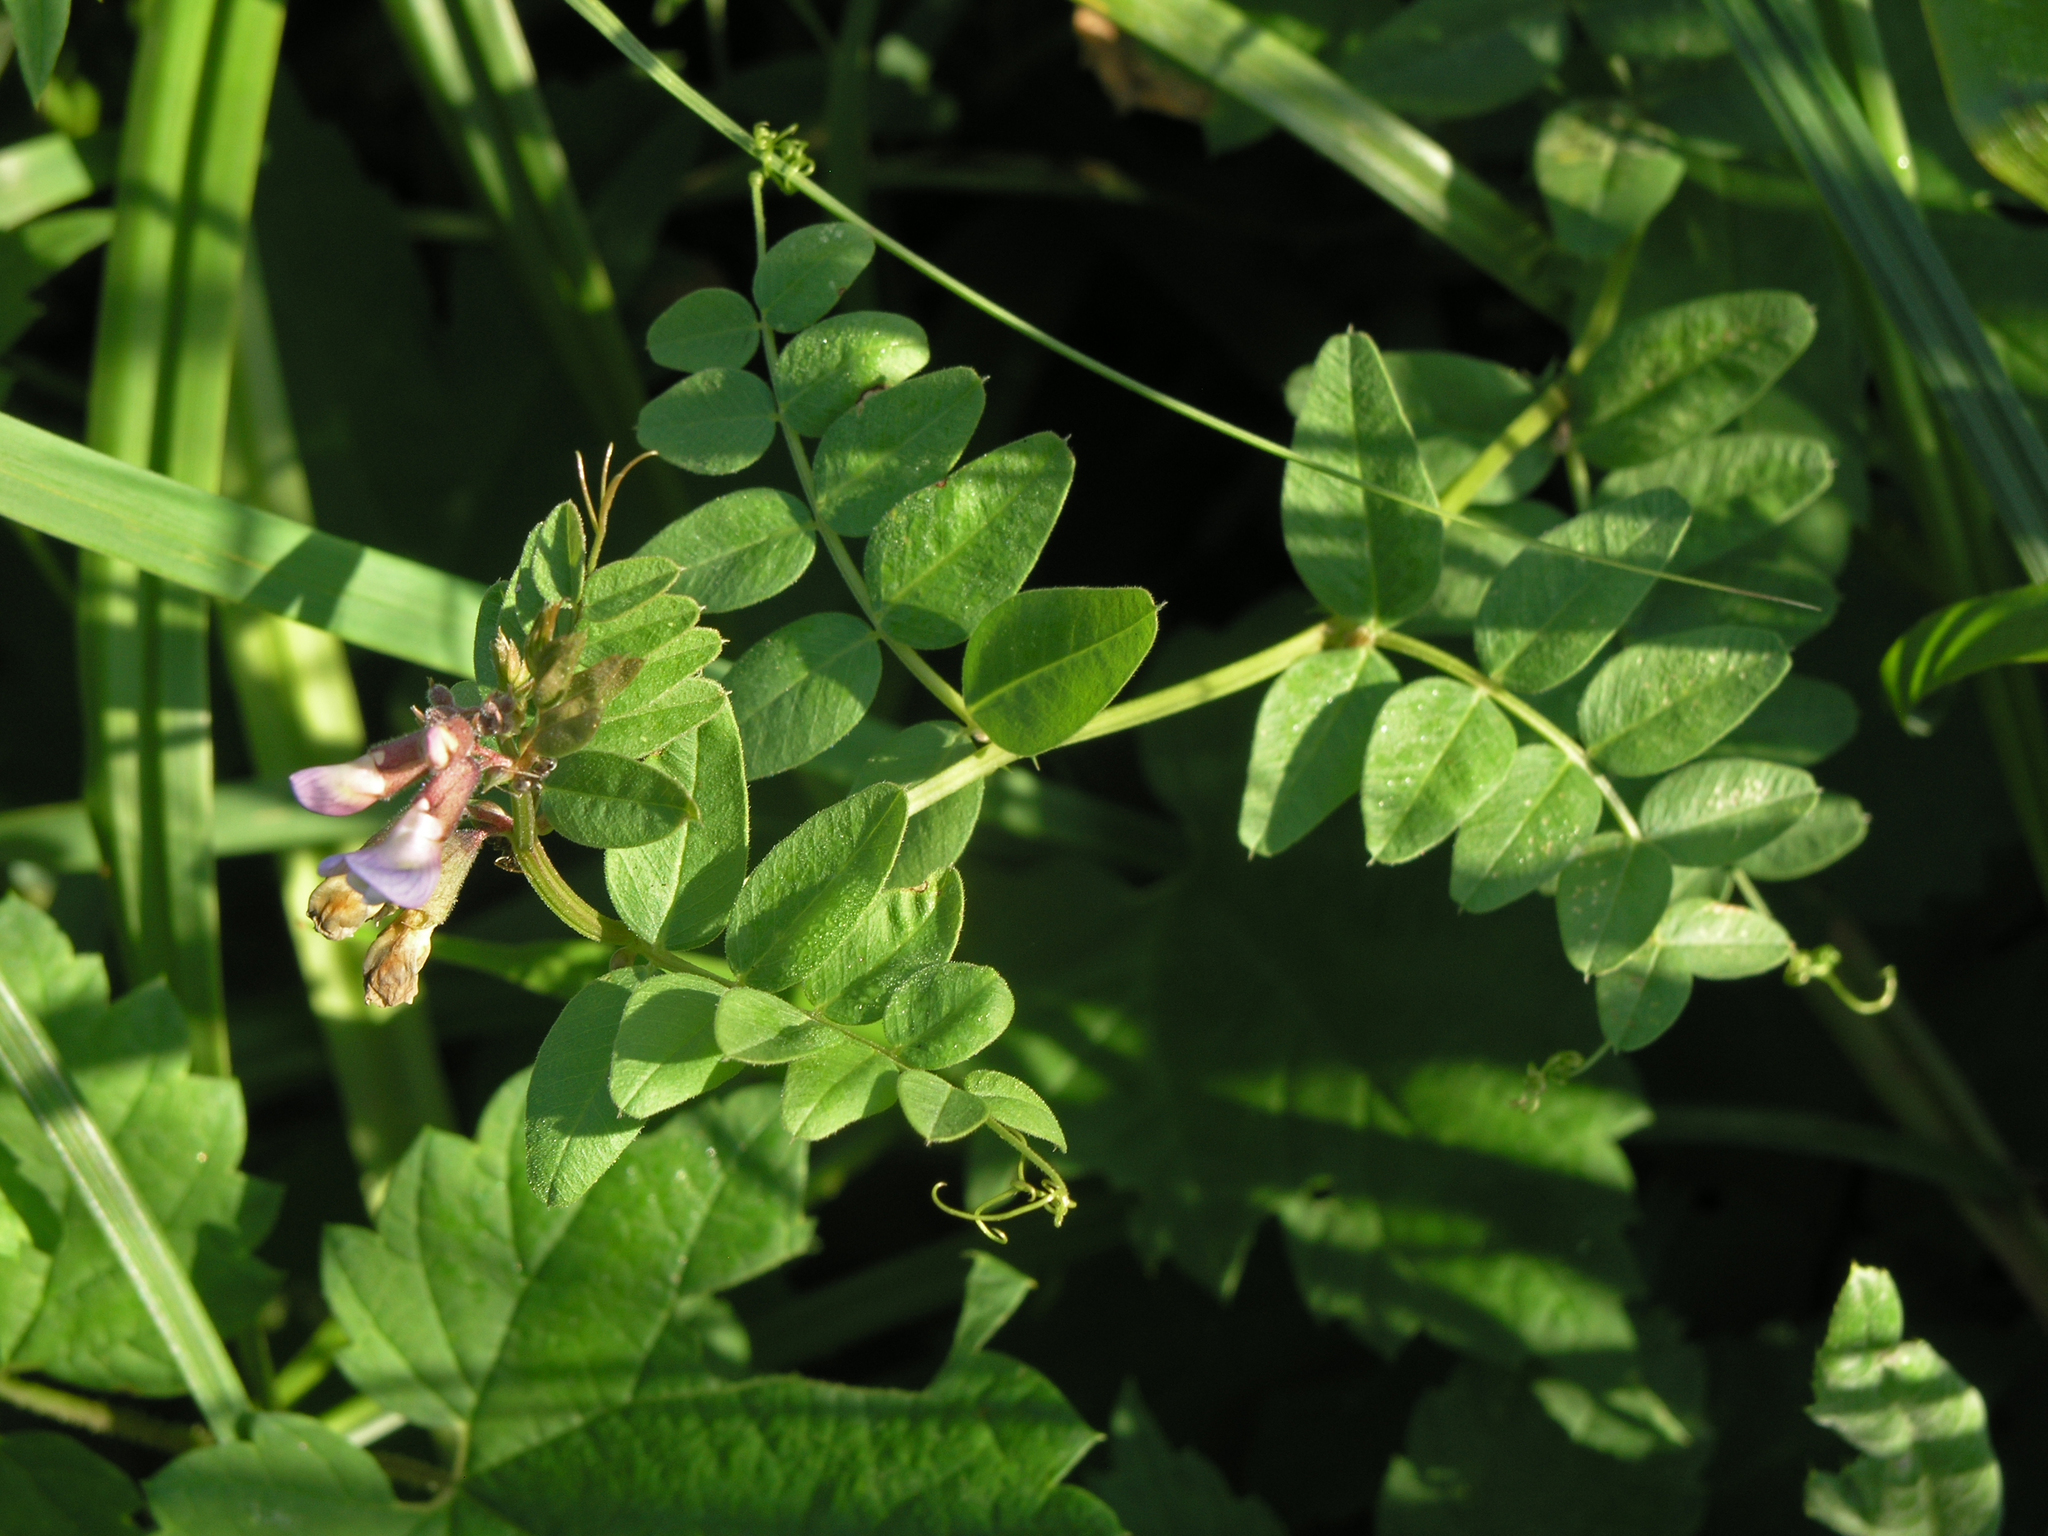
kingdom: Plantae
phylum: Tracheophyta
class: Magnoliopsida
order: Fabales
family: Fabaceae
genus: Vicia
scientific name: Vicia sepium
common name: Bush vetch
